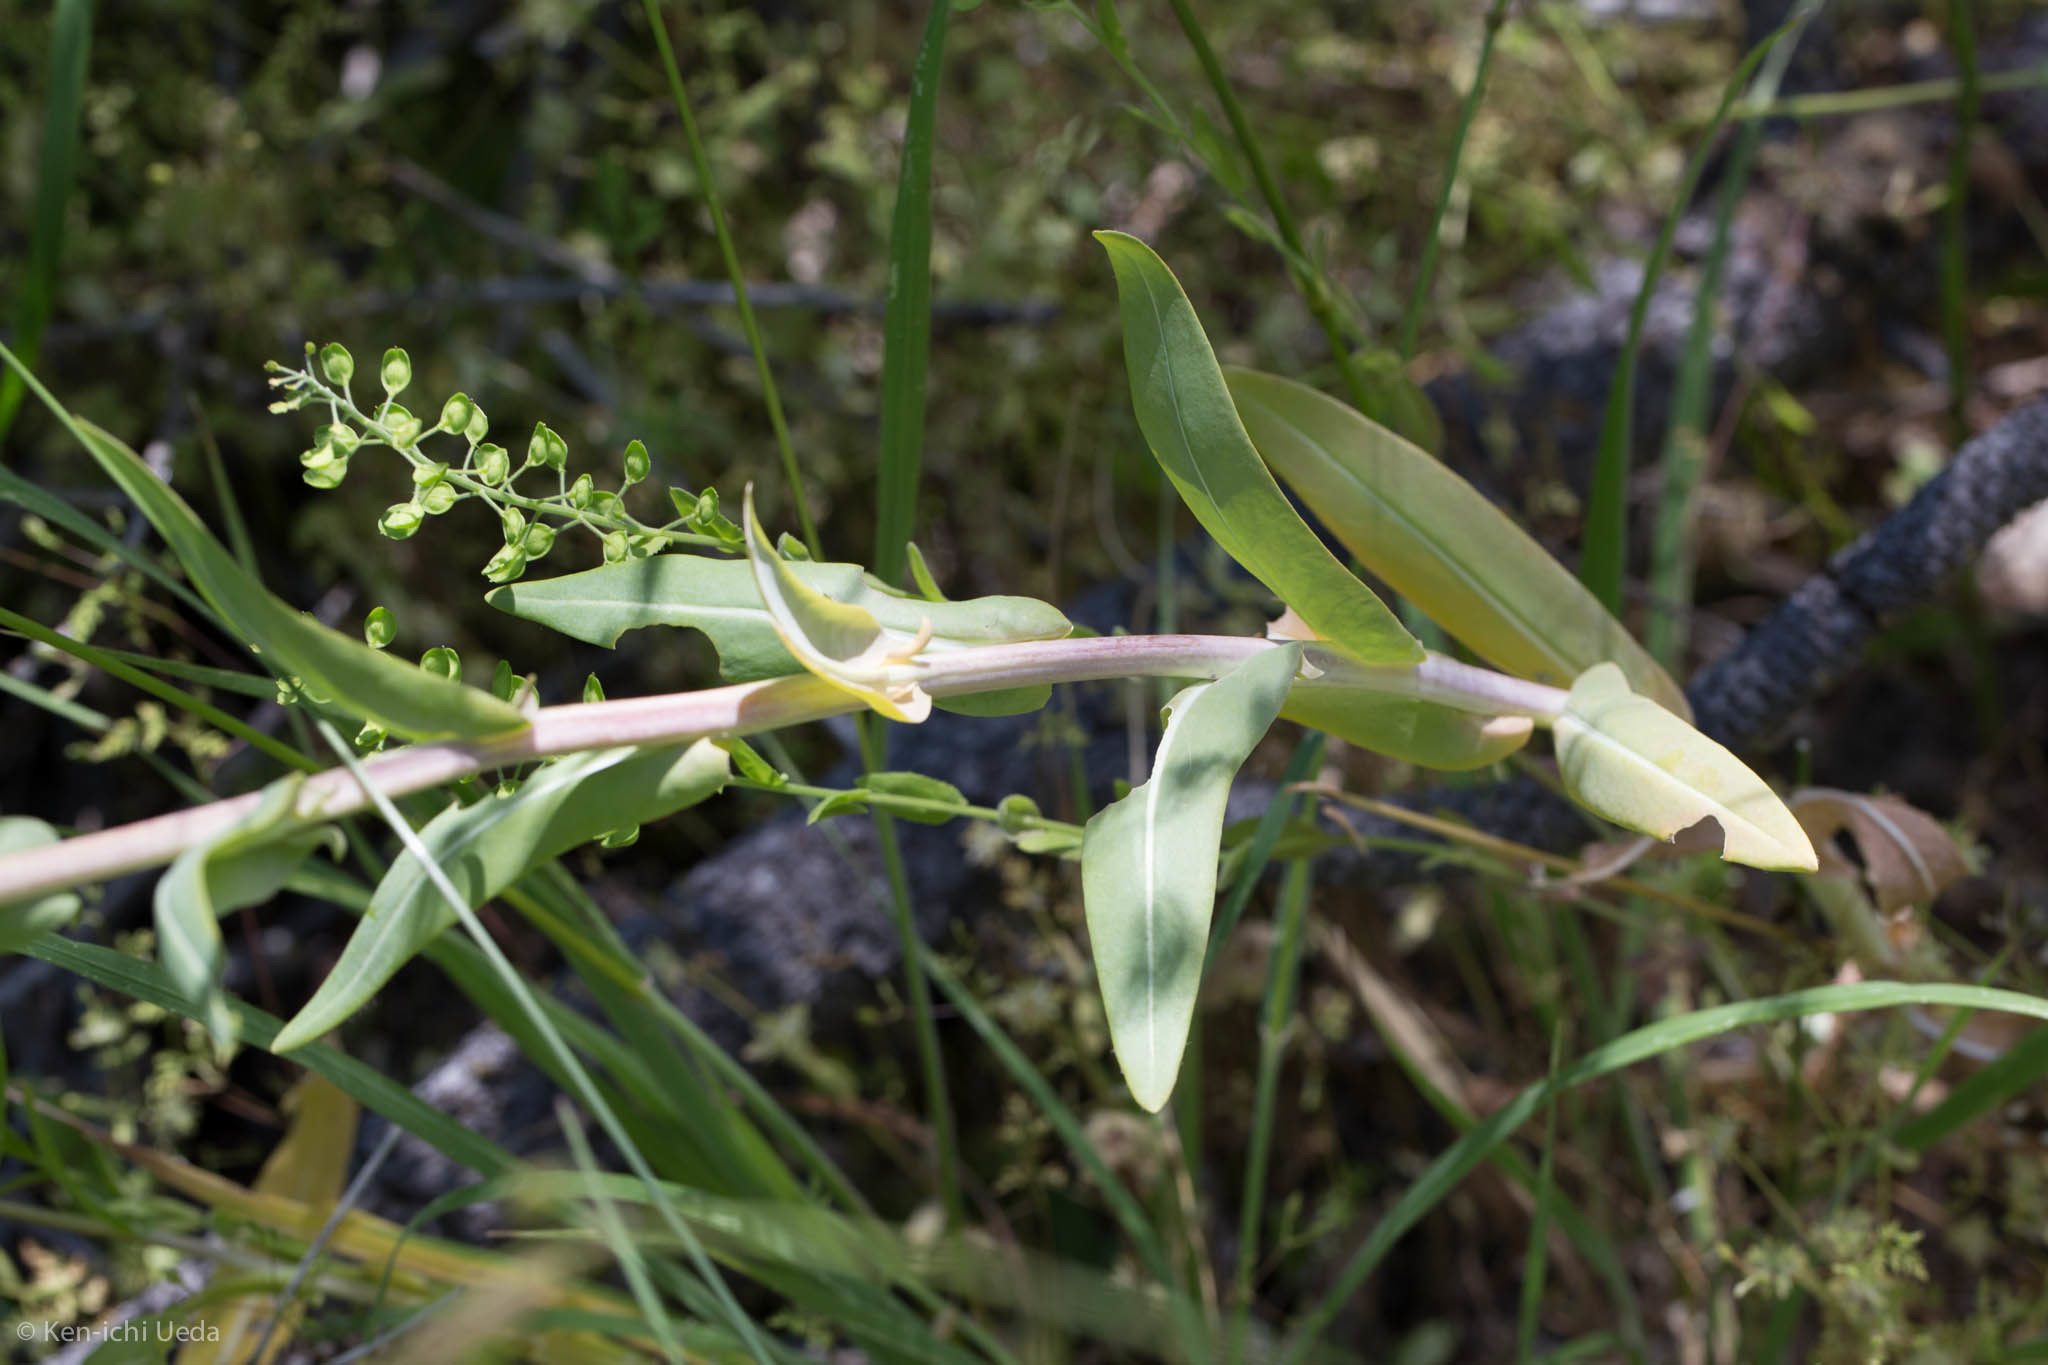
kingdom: Plantae
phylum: Tracheophyta
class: Magnoliopsida
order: Brassicales
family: Brassicaceae
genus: Isatis
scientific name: Isatis tinctoria
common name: Woad
